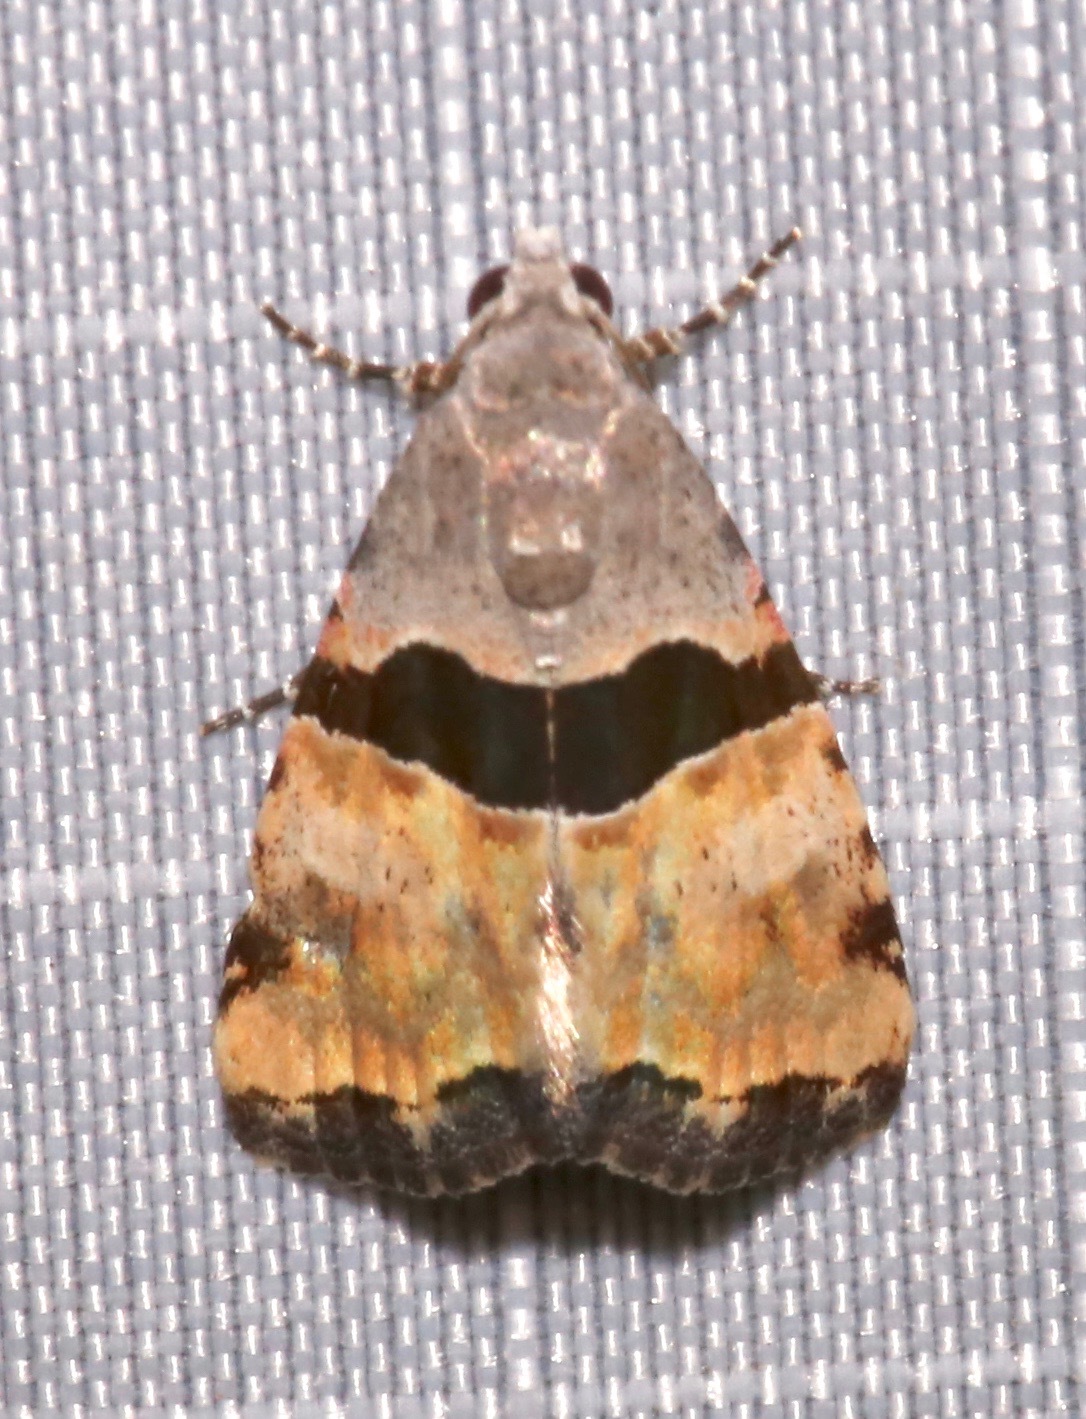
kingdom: Animalia
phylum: Arthropoda
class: Insecta
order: Lepidoptera
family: Noctuidae
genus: Cobubatha
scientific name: Cobubatha lixiva
